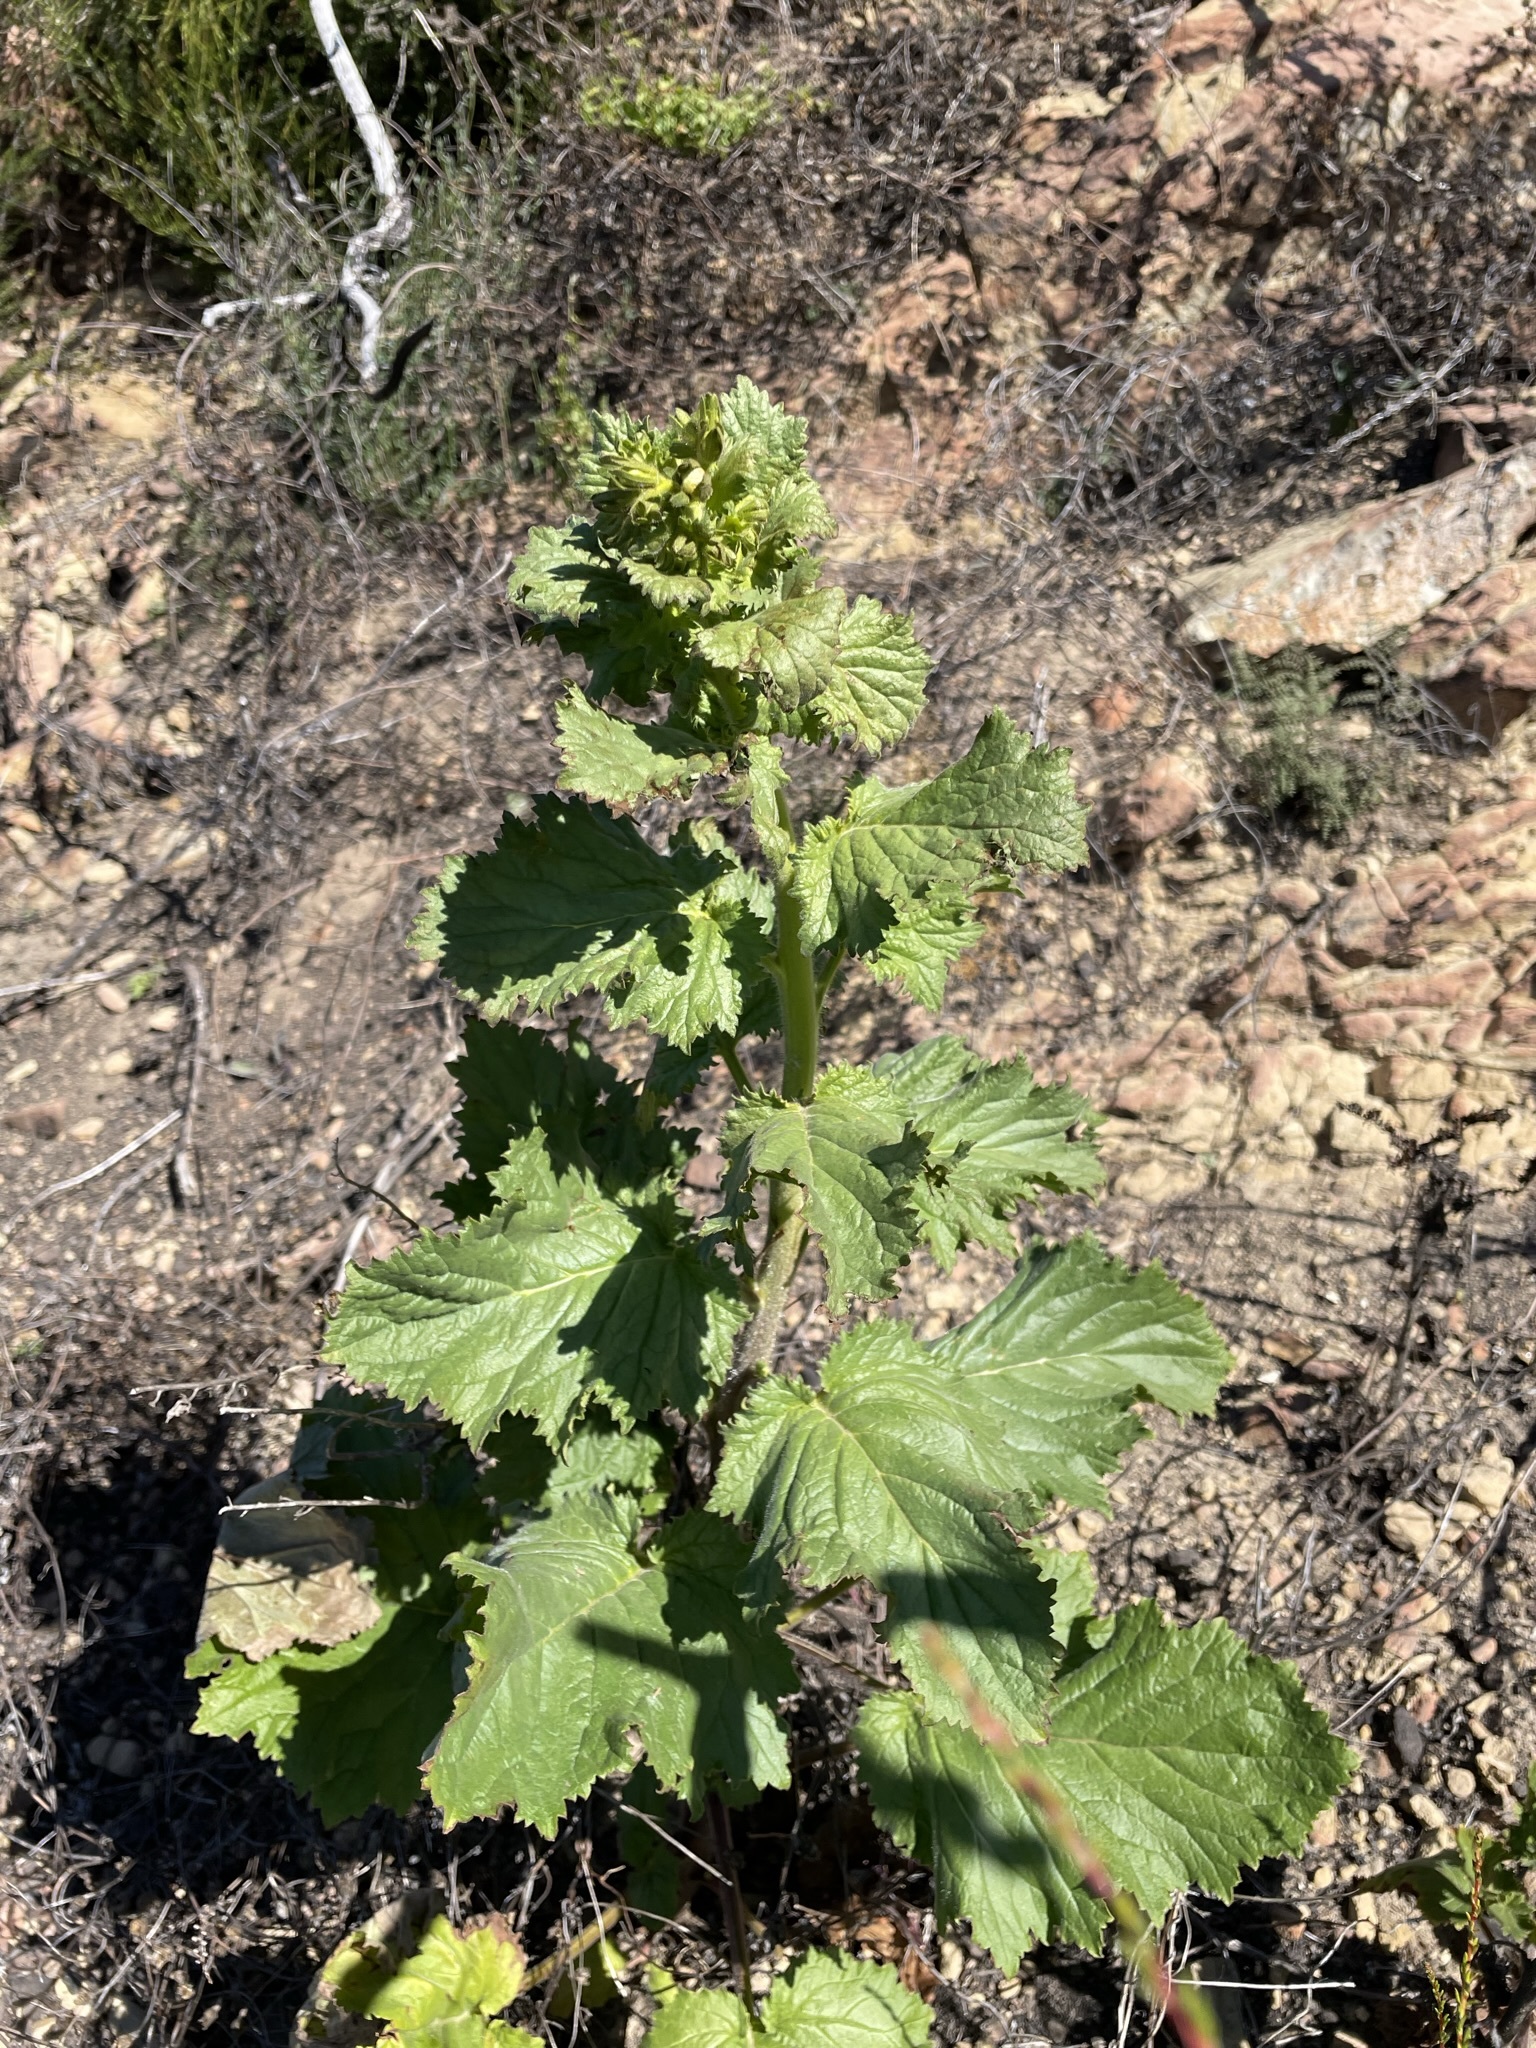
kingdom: Plantae
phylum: Tracheophyta
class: Magnoliopsida
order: Boraginales
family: Hydrophyllaceae
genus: Phacelia
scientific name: Phacelia grandiflora
